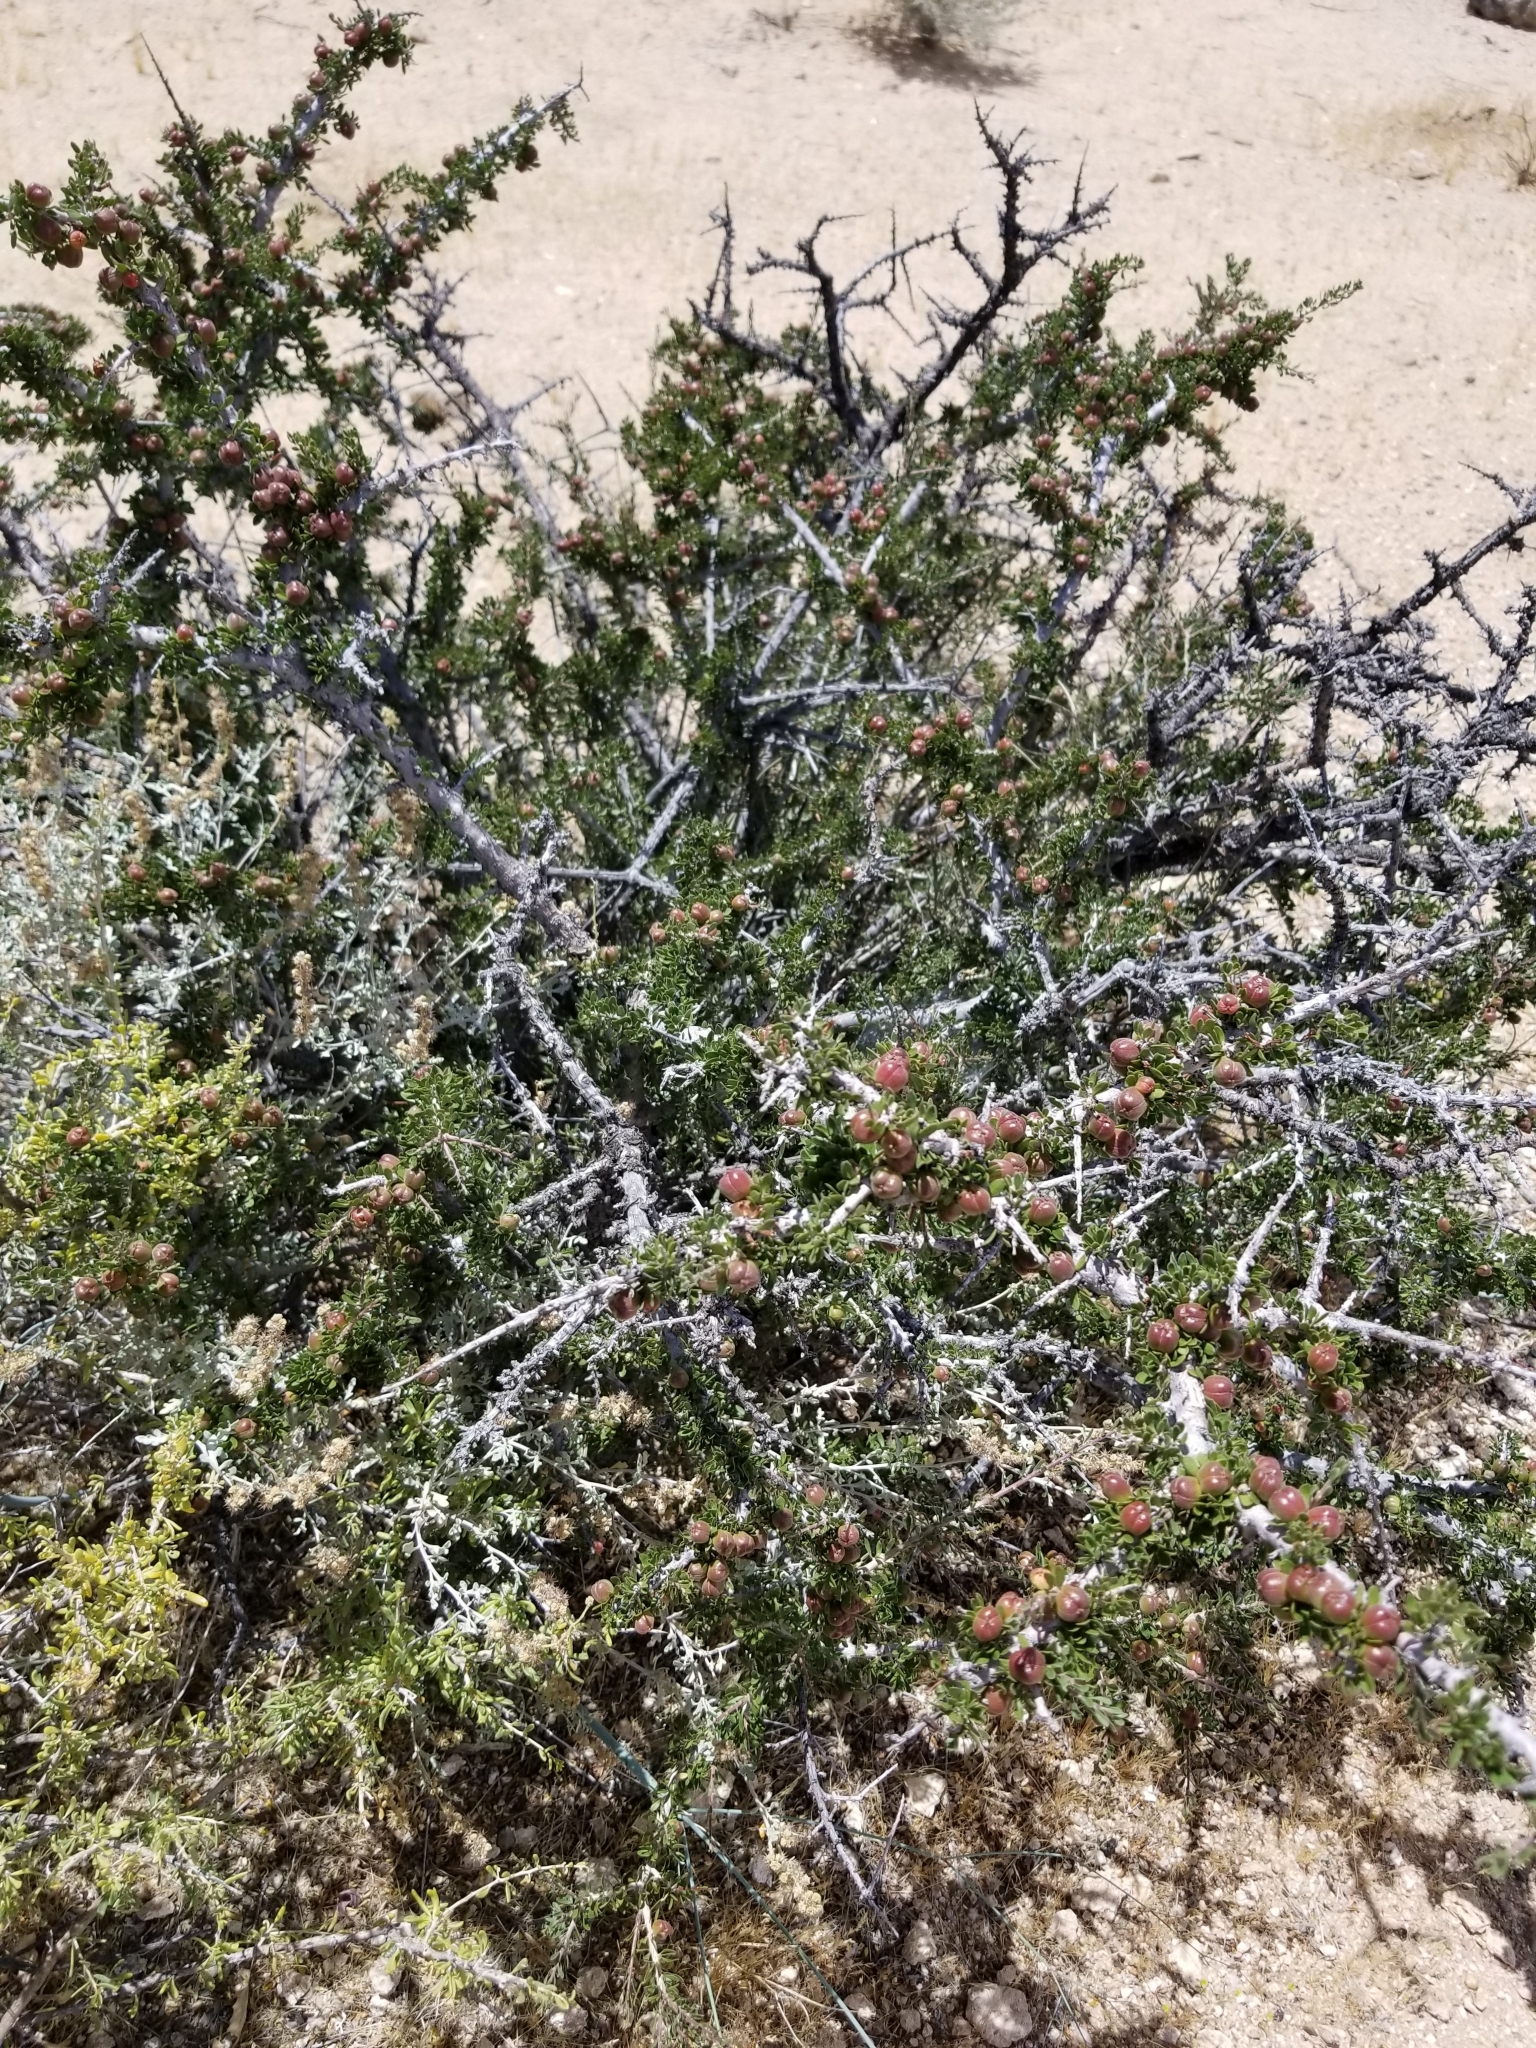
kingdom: Plantae
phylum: Tracheophyta
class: Magnoliopsida
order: Malpighiales
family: Picrodendraceae
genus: Tetracoccus
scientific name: Tetracoccus hallii
